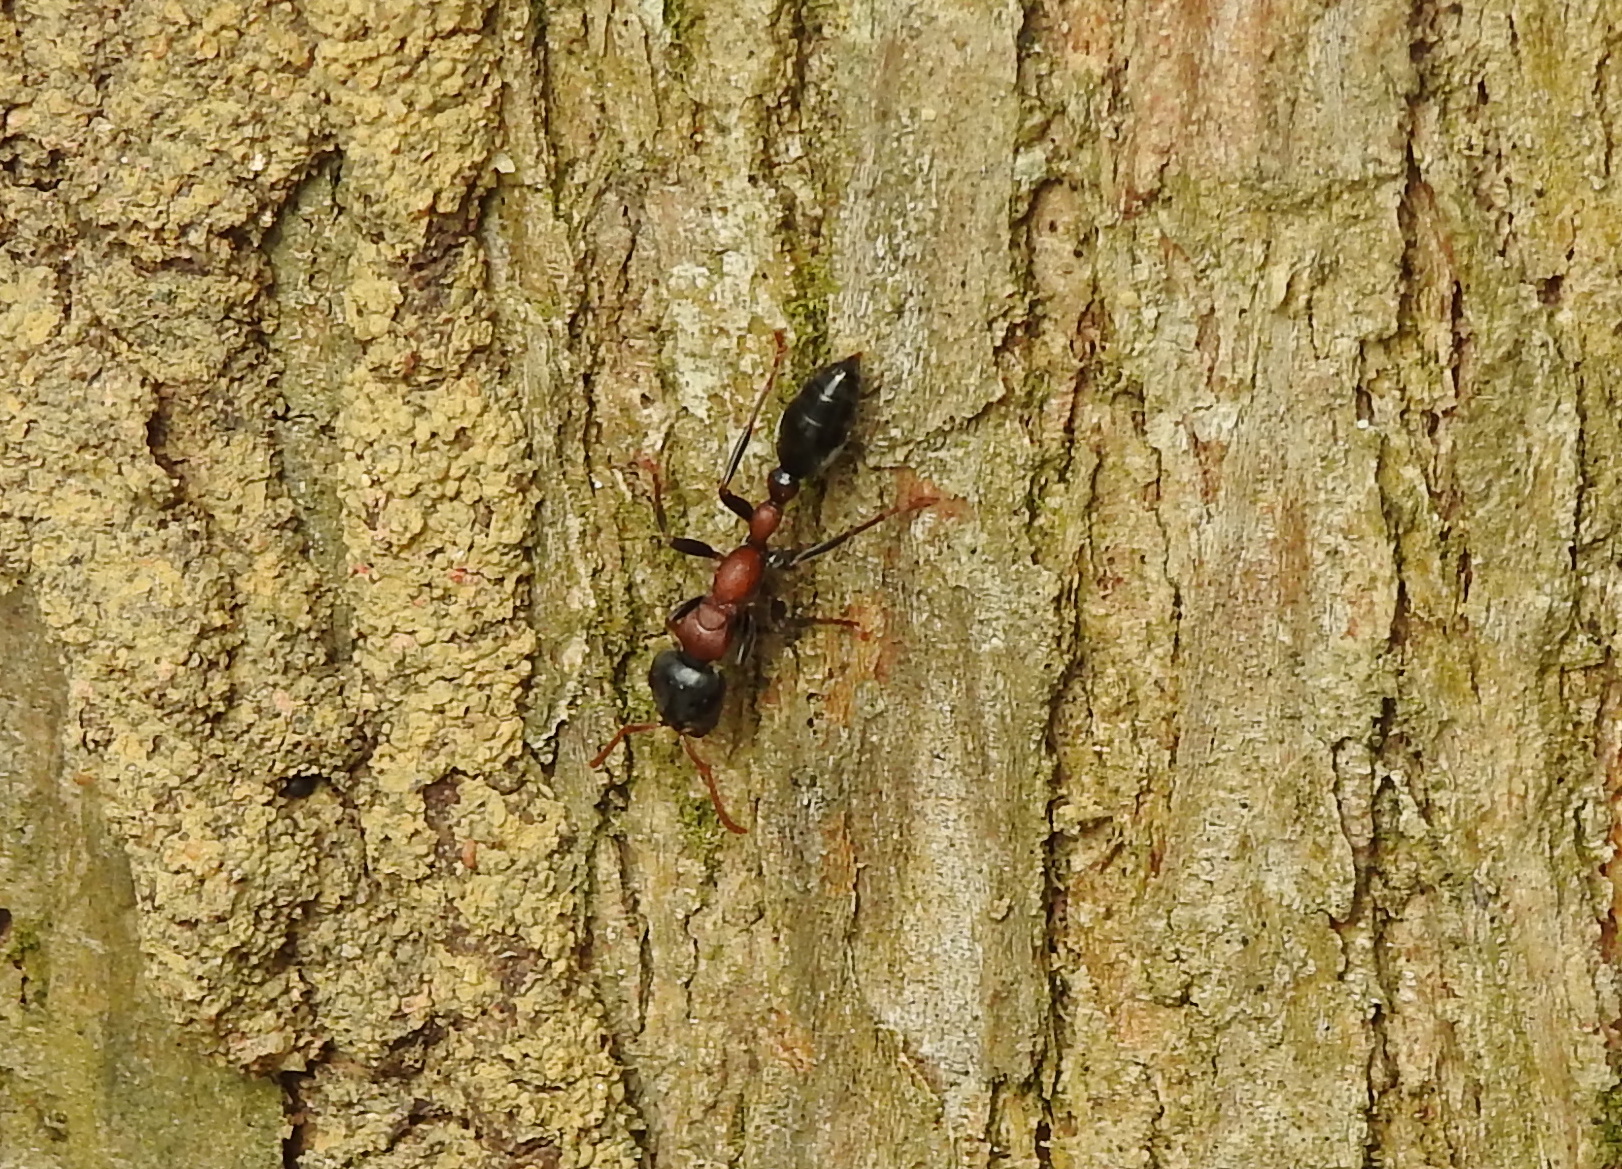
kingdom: Animalia
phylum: Arthropoda
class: Insecta
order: Hymenoptera
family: Formicidae
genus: Tetraponera
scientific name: Tetraponera rufonigra
